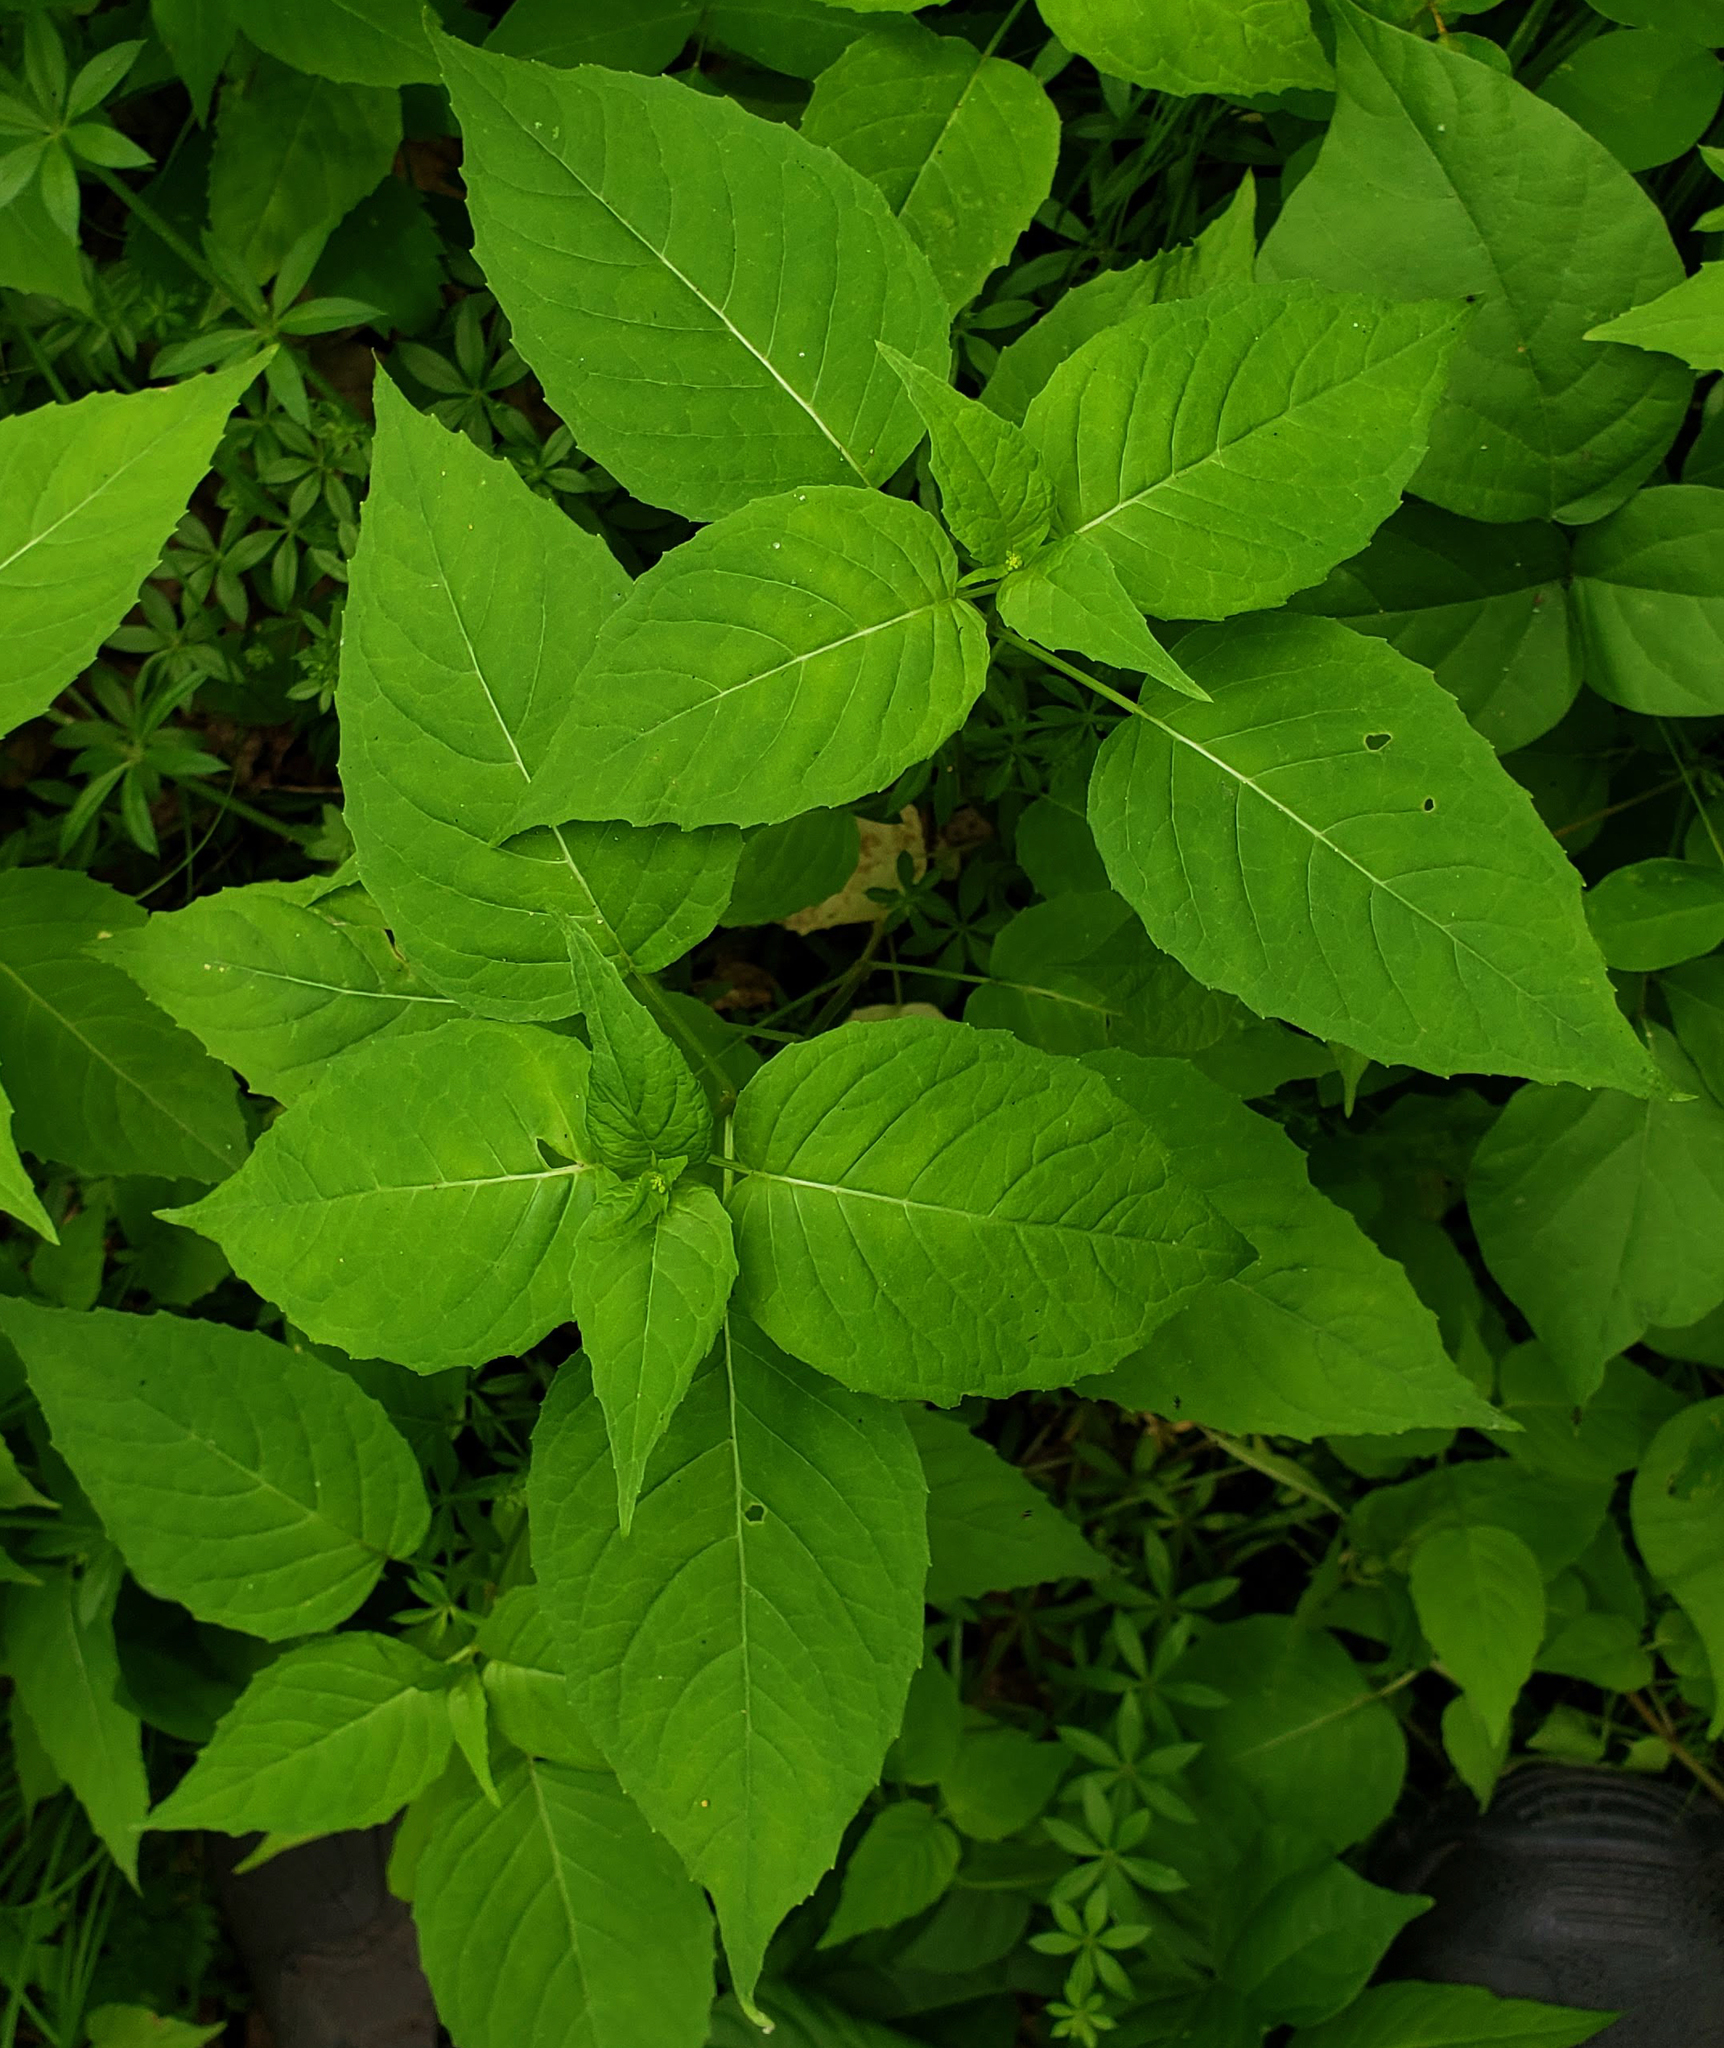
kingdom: Plantae
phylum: Tracheophyta
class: Magnoliopsida
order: Myrtales
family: Onagraceae
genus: Circaea
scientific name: Circaea canadensis
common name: Broad-leaved enchanter's nightshade
